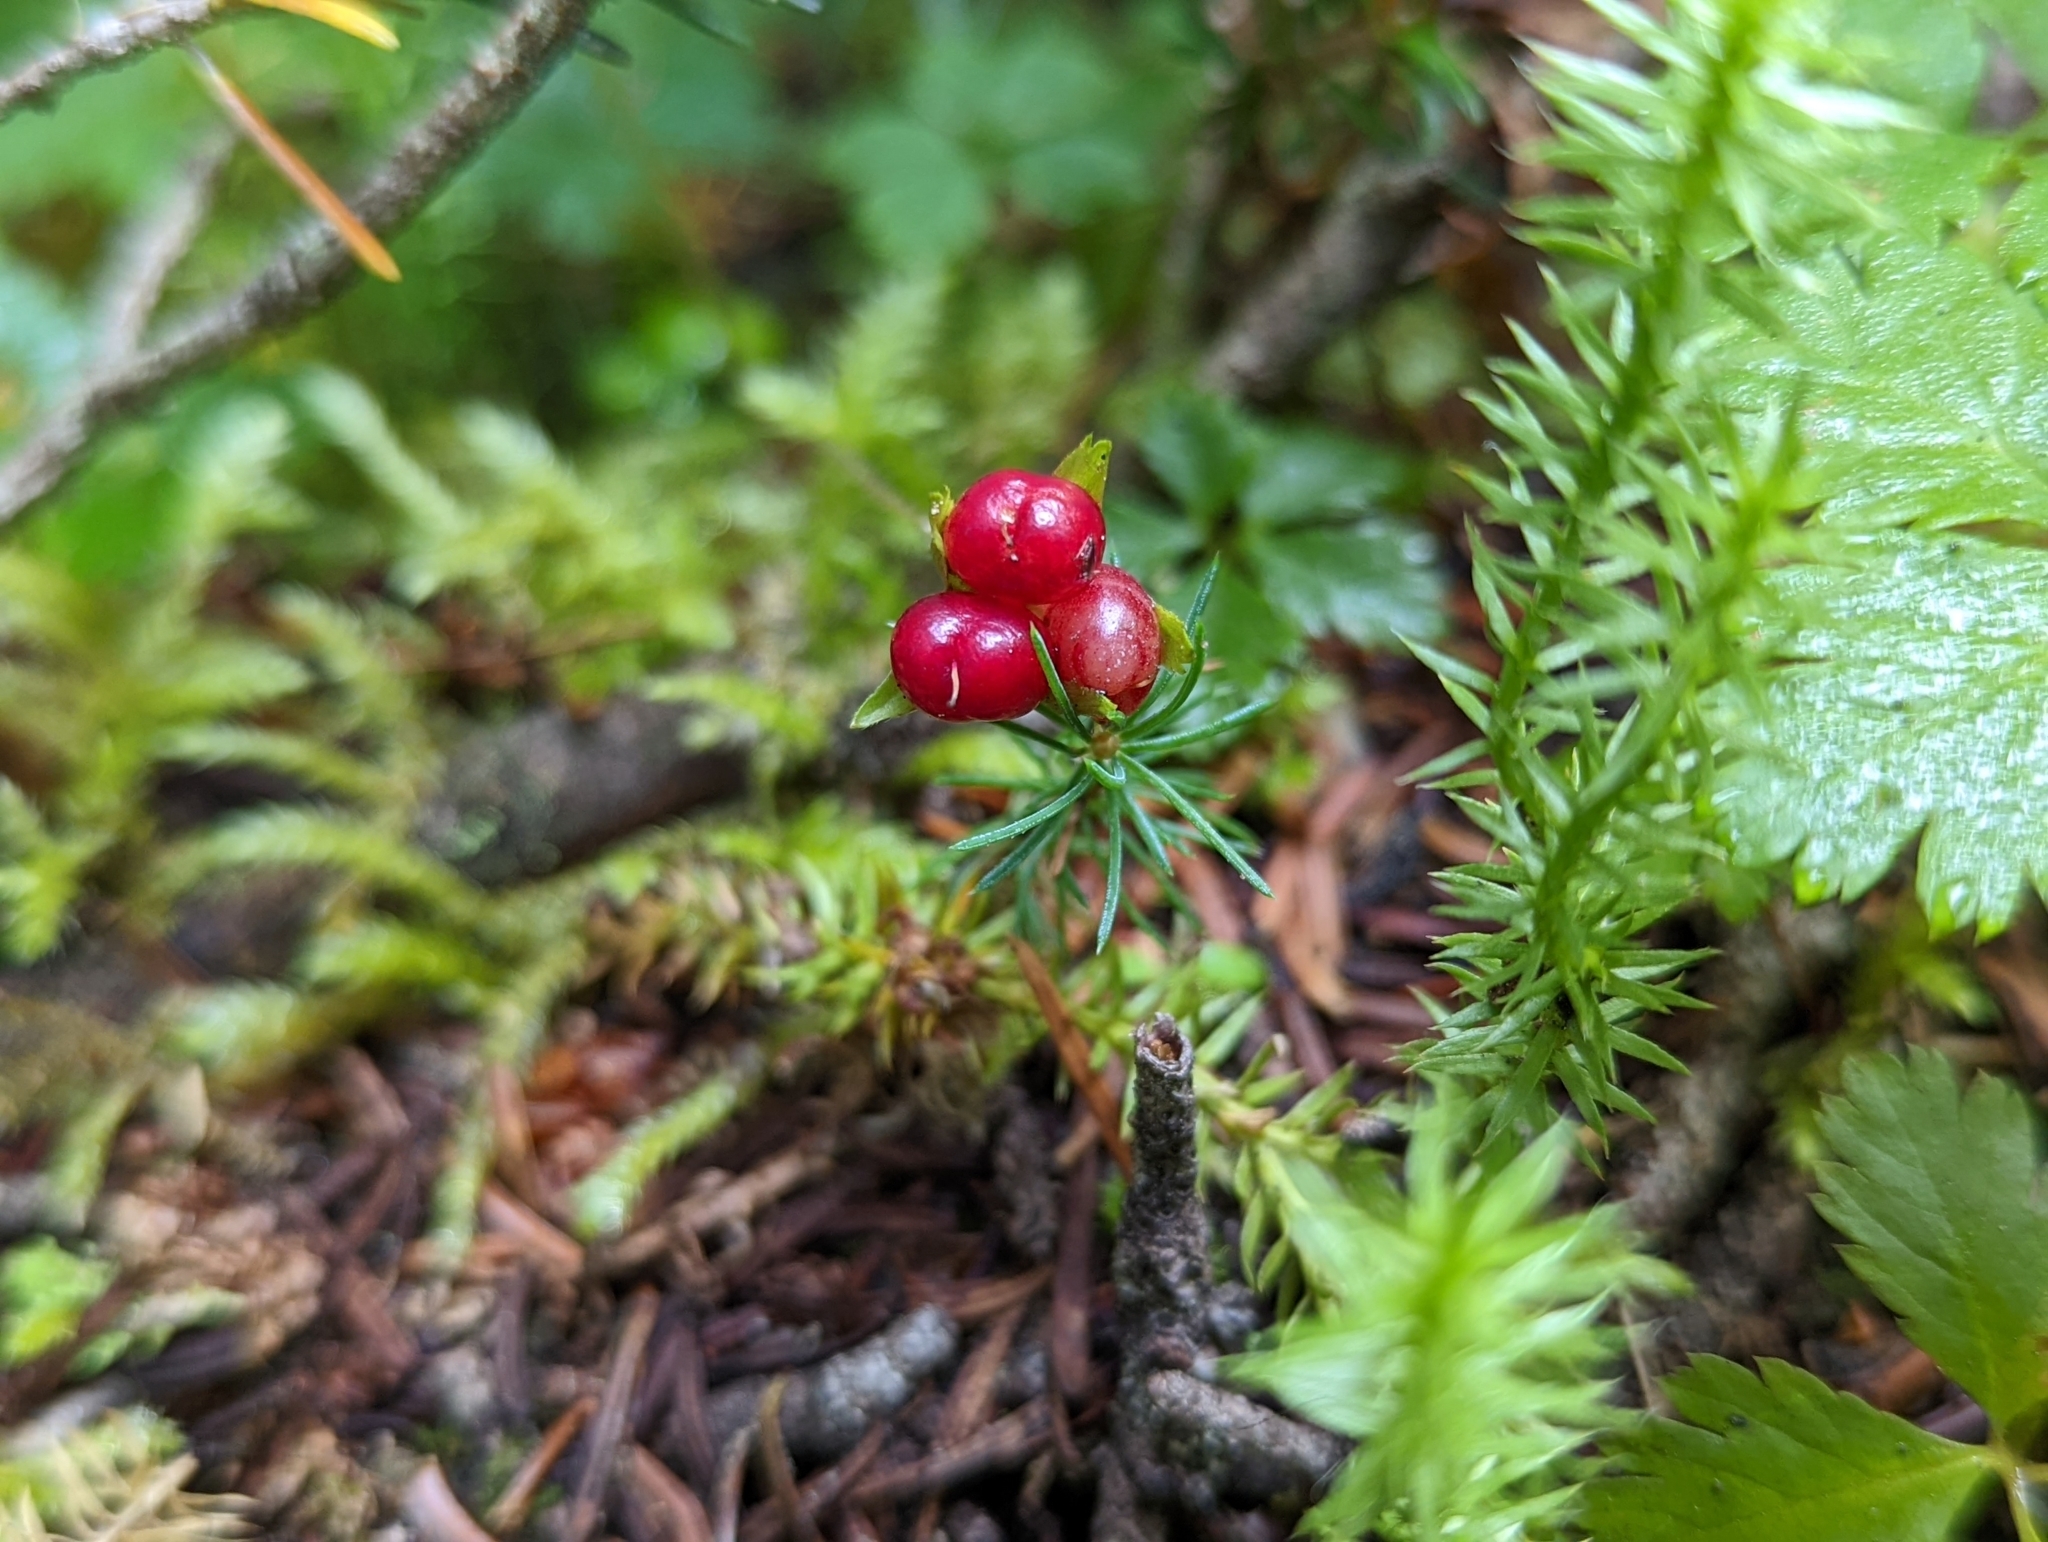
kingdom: Plantae
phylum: Tracheophyta
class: Magnoliopsida
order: Rosales
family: Rosaceae
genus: Rubus
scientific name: Rubus pedatus
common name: Creeping raspberry
